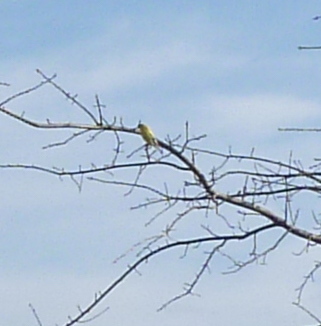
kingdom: Animalia
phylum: Chordata
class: Aves
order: Passeriformes
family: Fringillidae
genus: Spinus
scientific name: Spinus tristis
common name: American goldfinch
